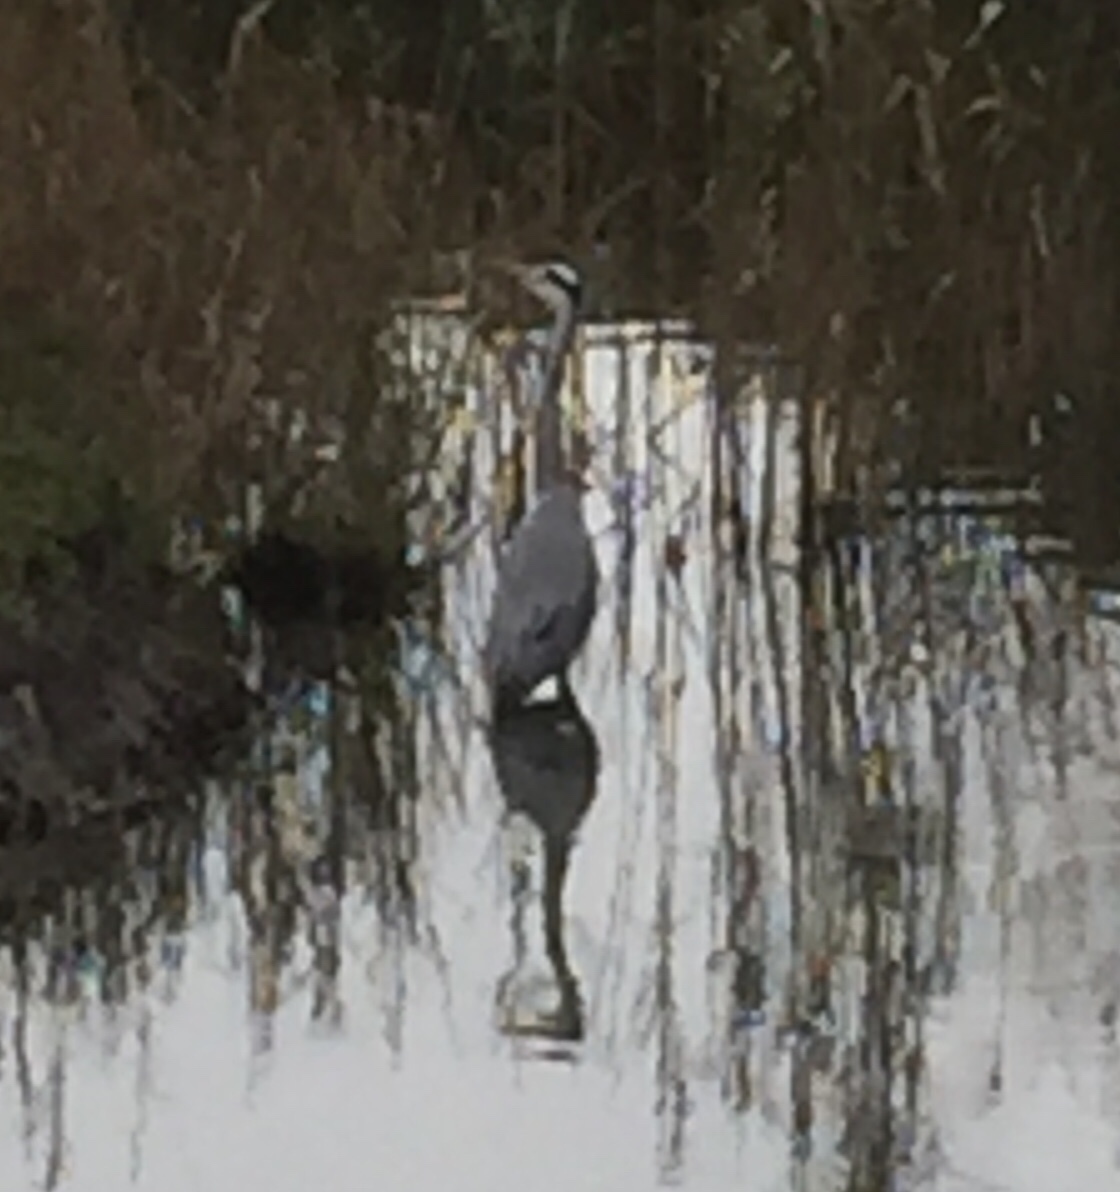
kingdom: Animalia
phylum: Chordata
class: Aves
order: Pelecaniformes
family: Ardeidae
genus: Ardea
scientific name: Ardea cinerea
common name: Grey heron
